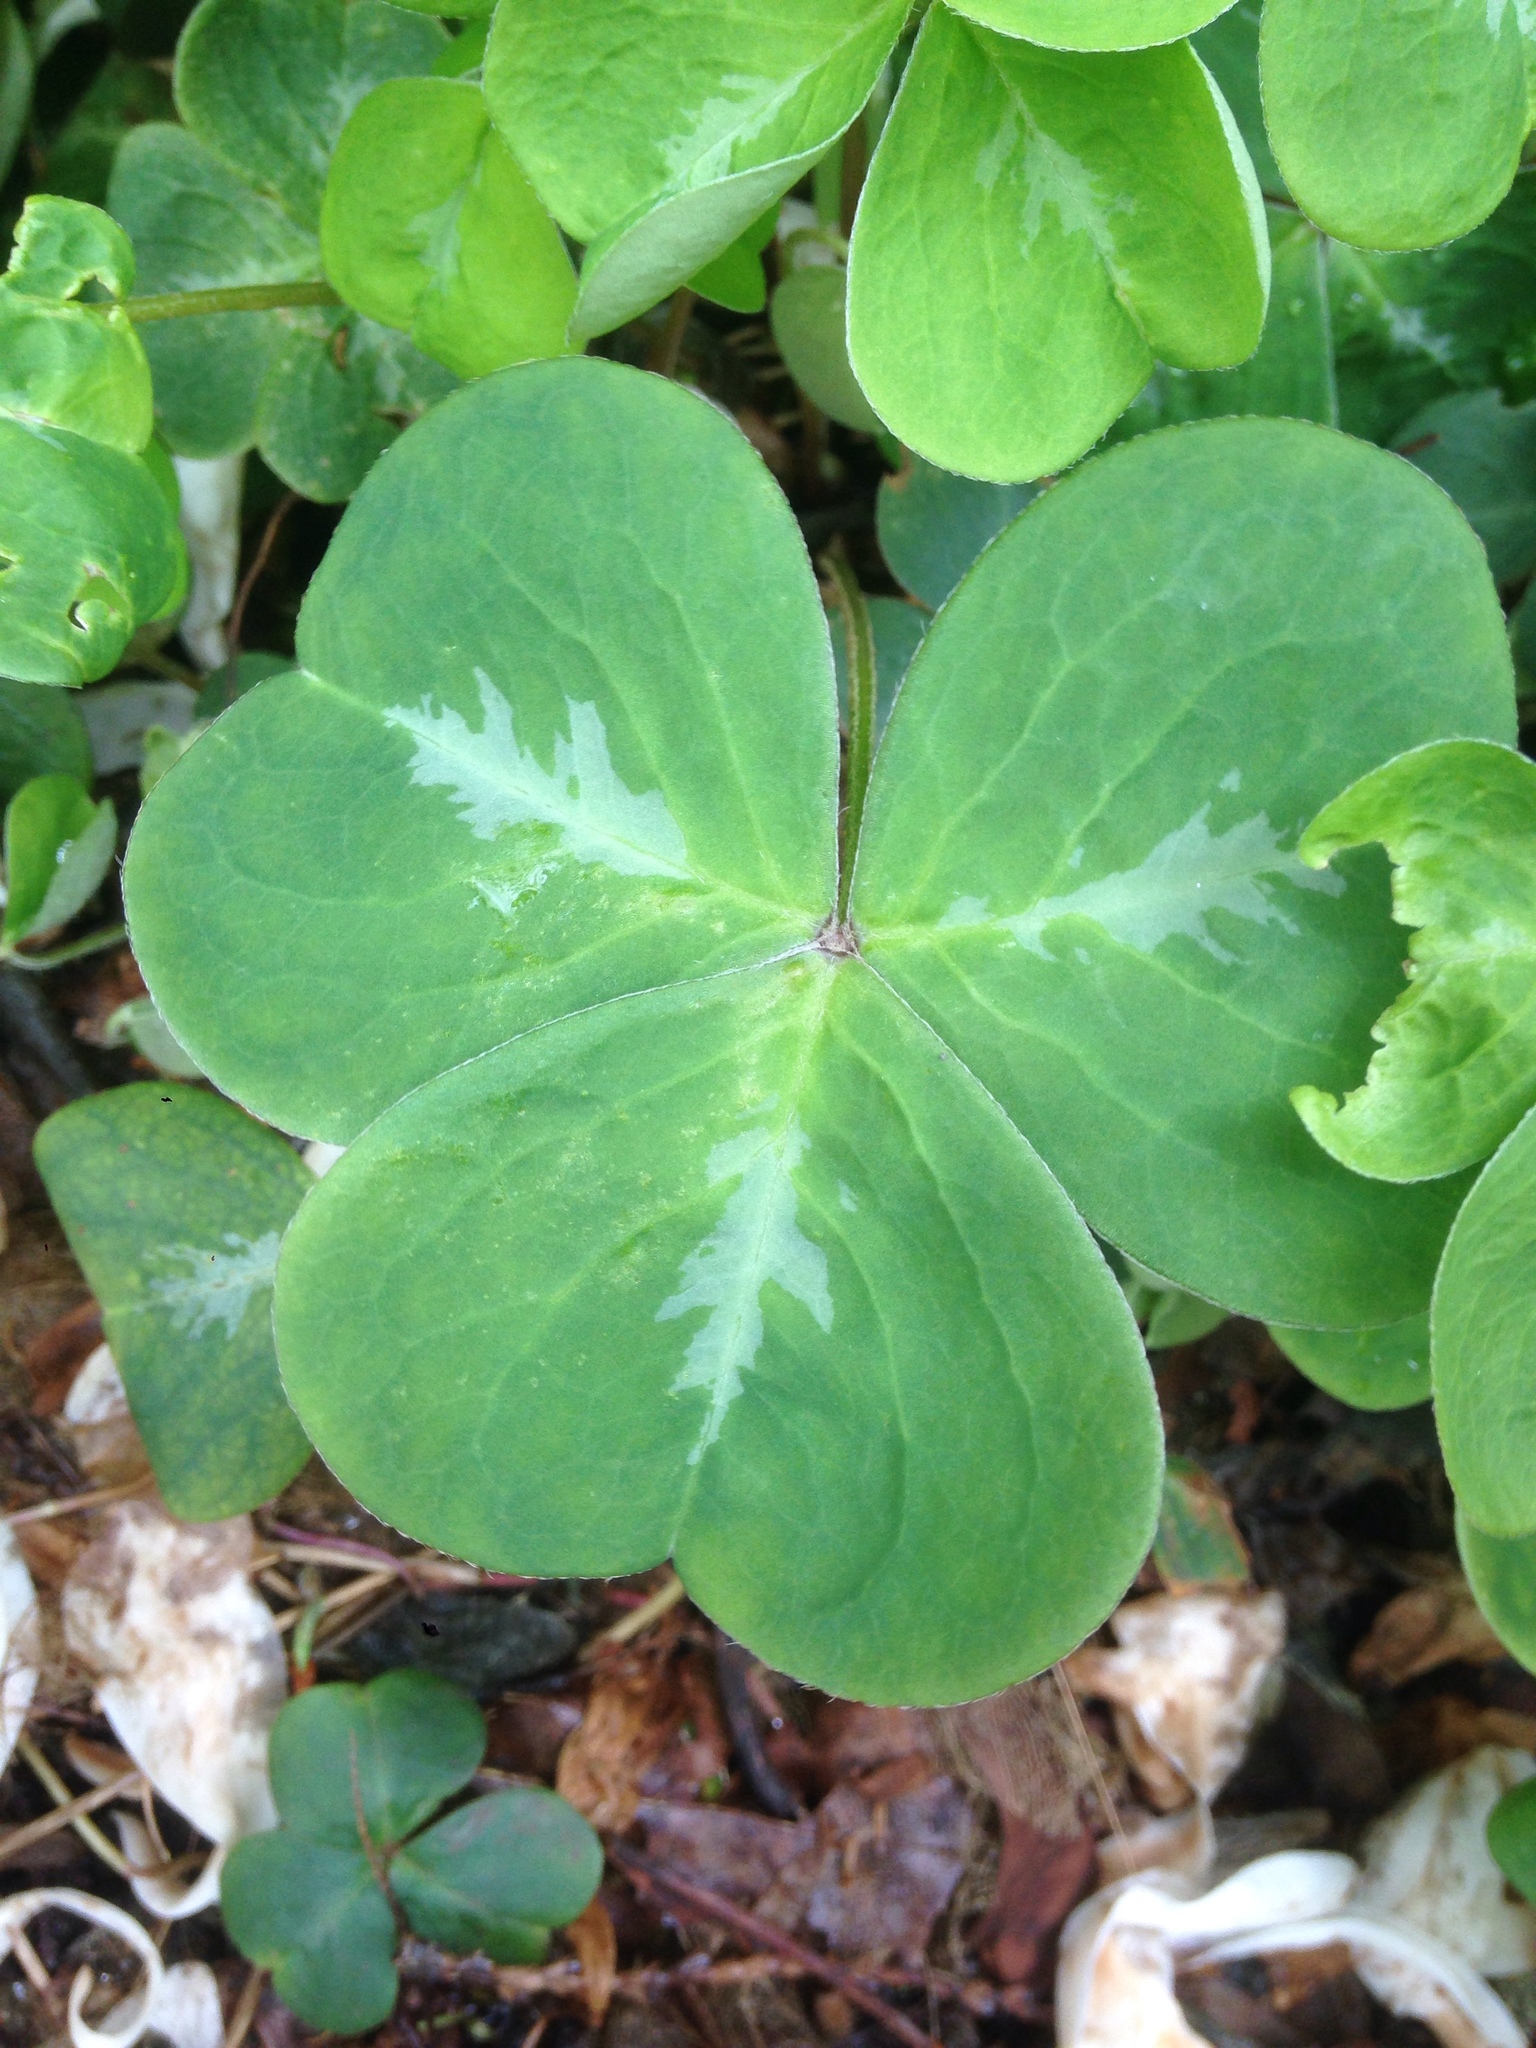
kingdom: Plantae
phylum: Tracheophyta
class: Magnoliopsida
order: Oxalidales
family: Oxalidaceae
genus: Oxalis
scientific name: Oxalis oregana
